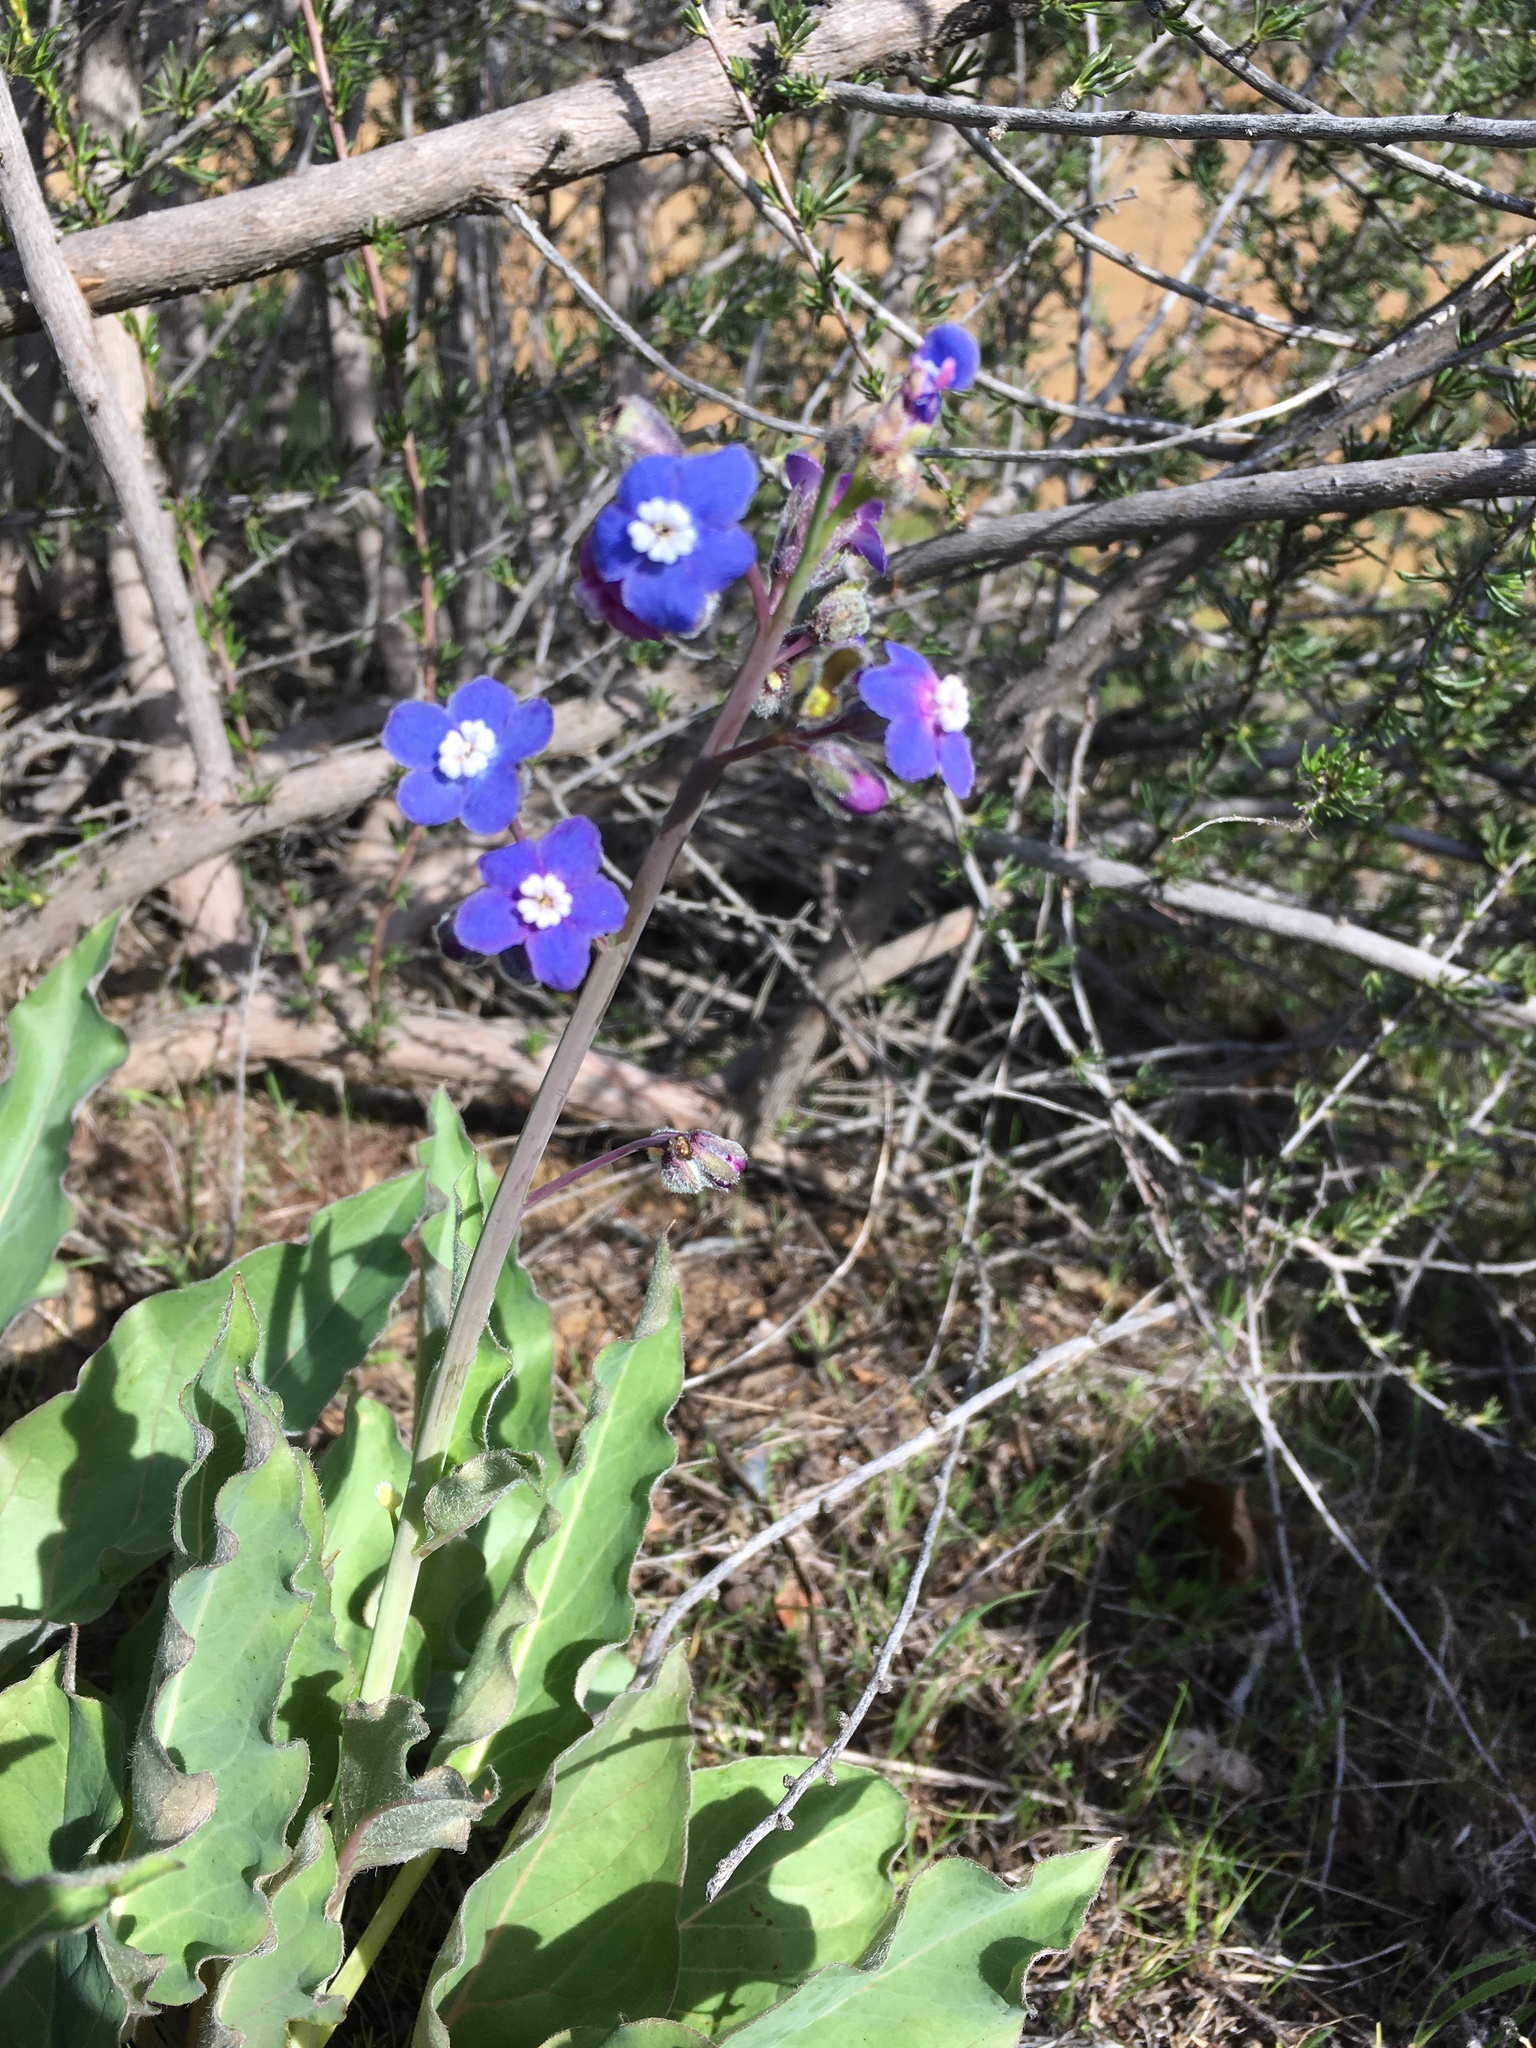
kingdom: Plantae
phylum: Tracheophyta
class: Magnoliopsida
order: Boraginales
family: Boraginaceae
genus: Adelinia
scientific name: Adelinia grande
